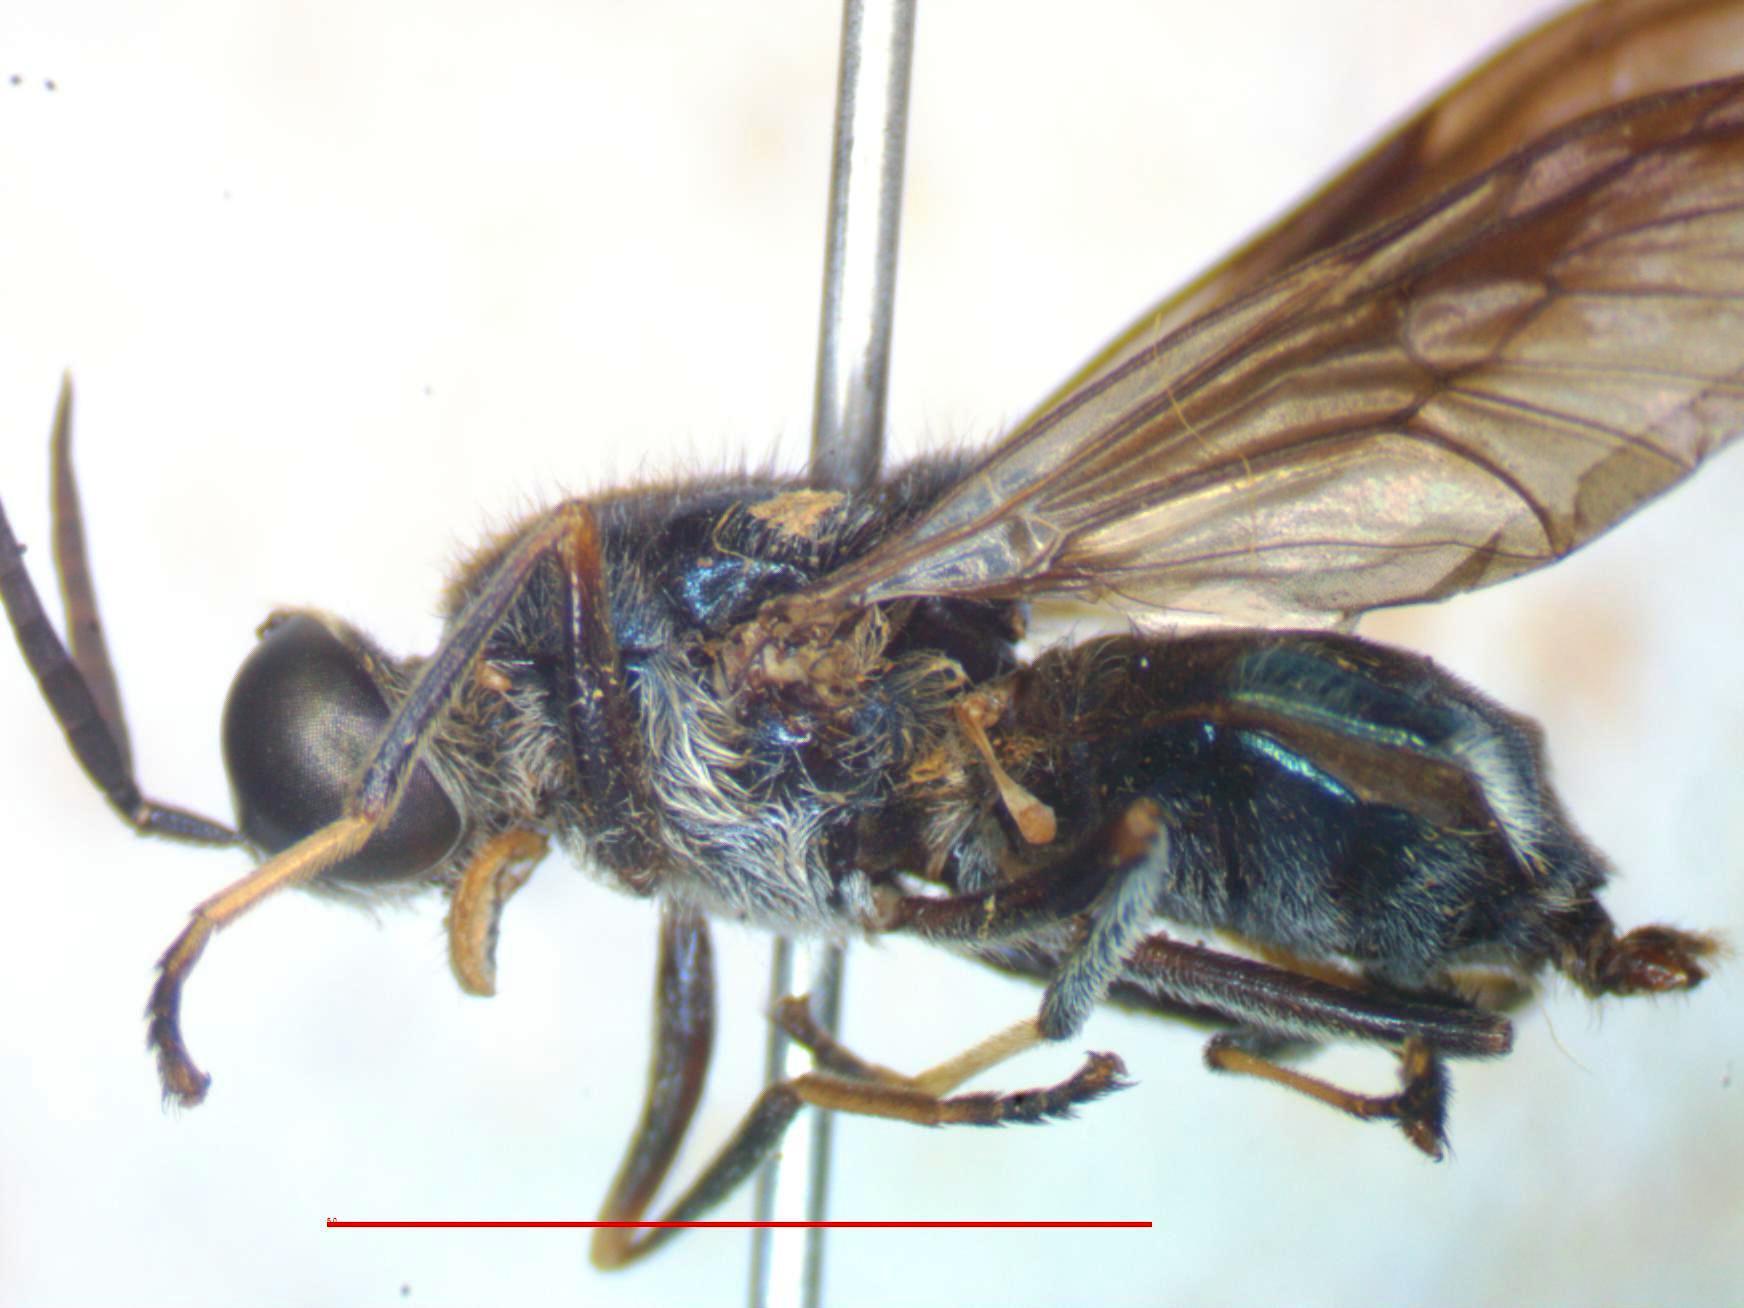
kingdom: Animalia
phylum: Arthropoda
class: Insecta
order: Diptera
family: Stratiomyidae
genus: Cyphomyia
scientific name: Cyphomyia chrysodota
